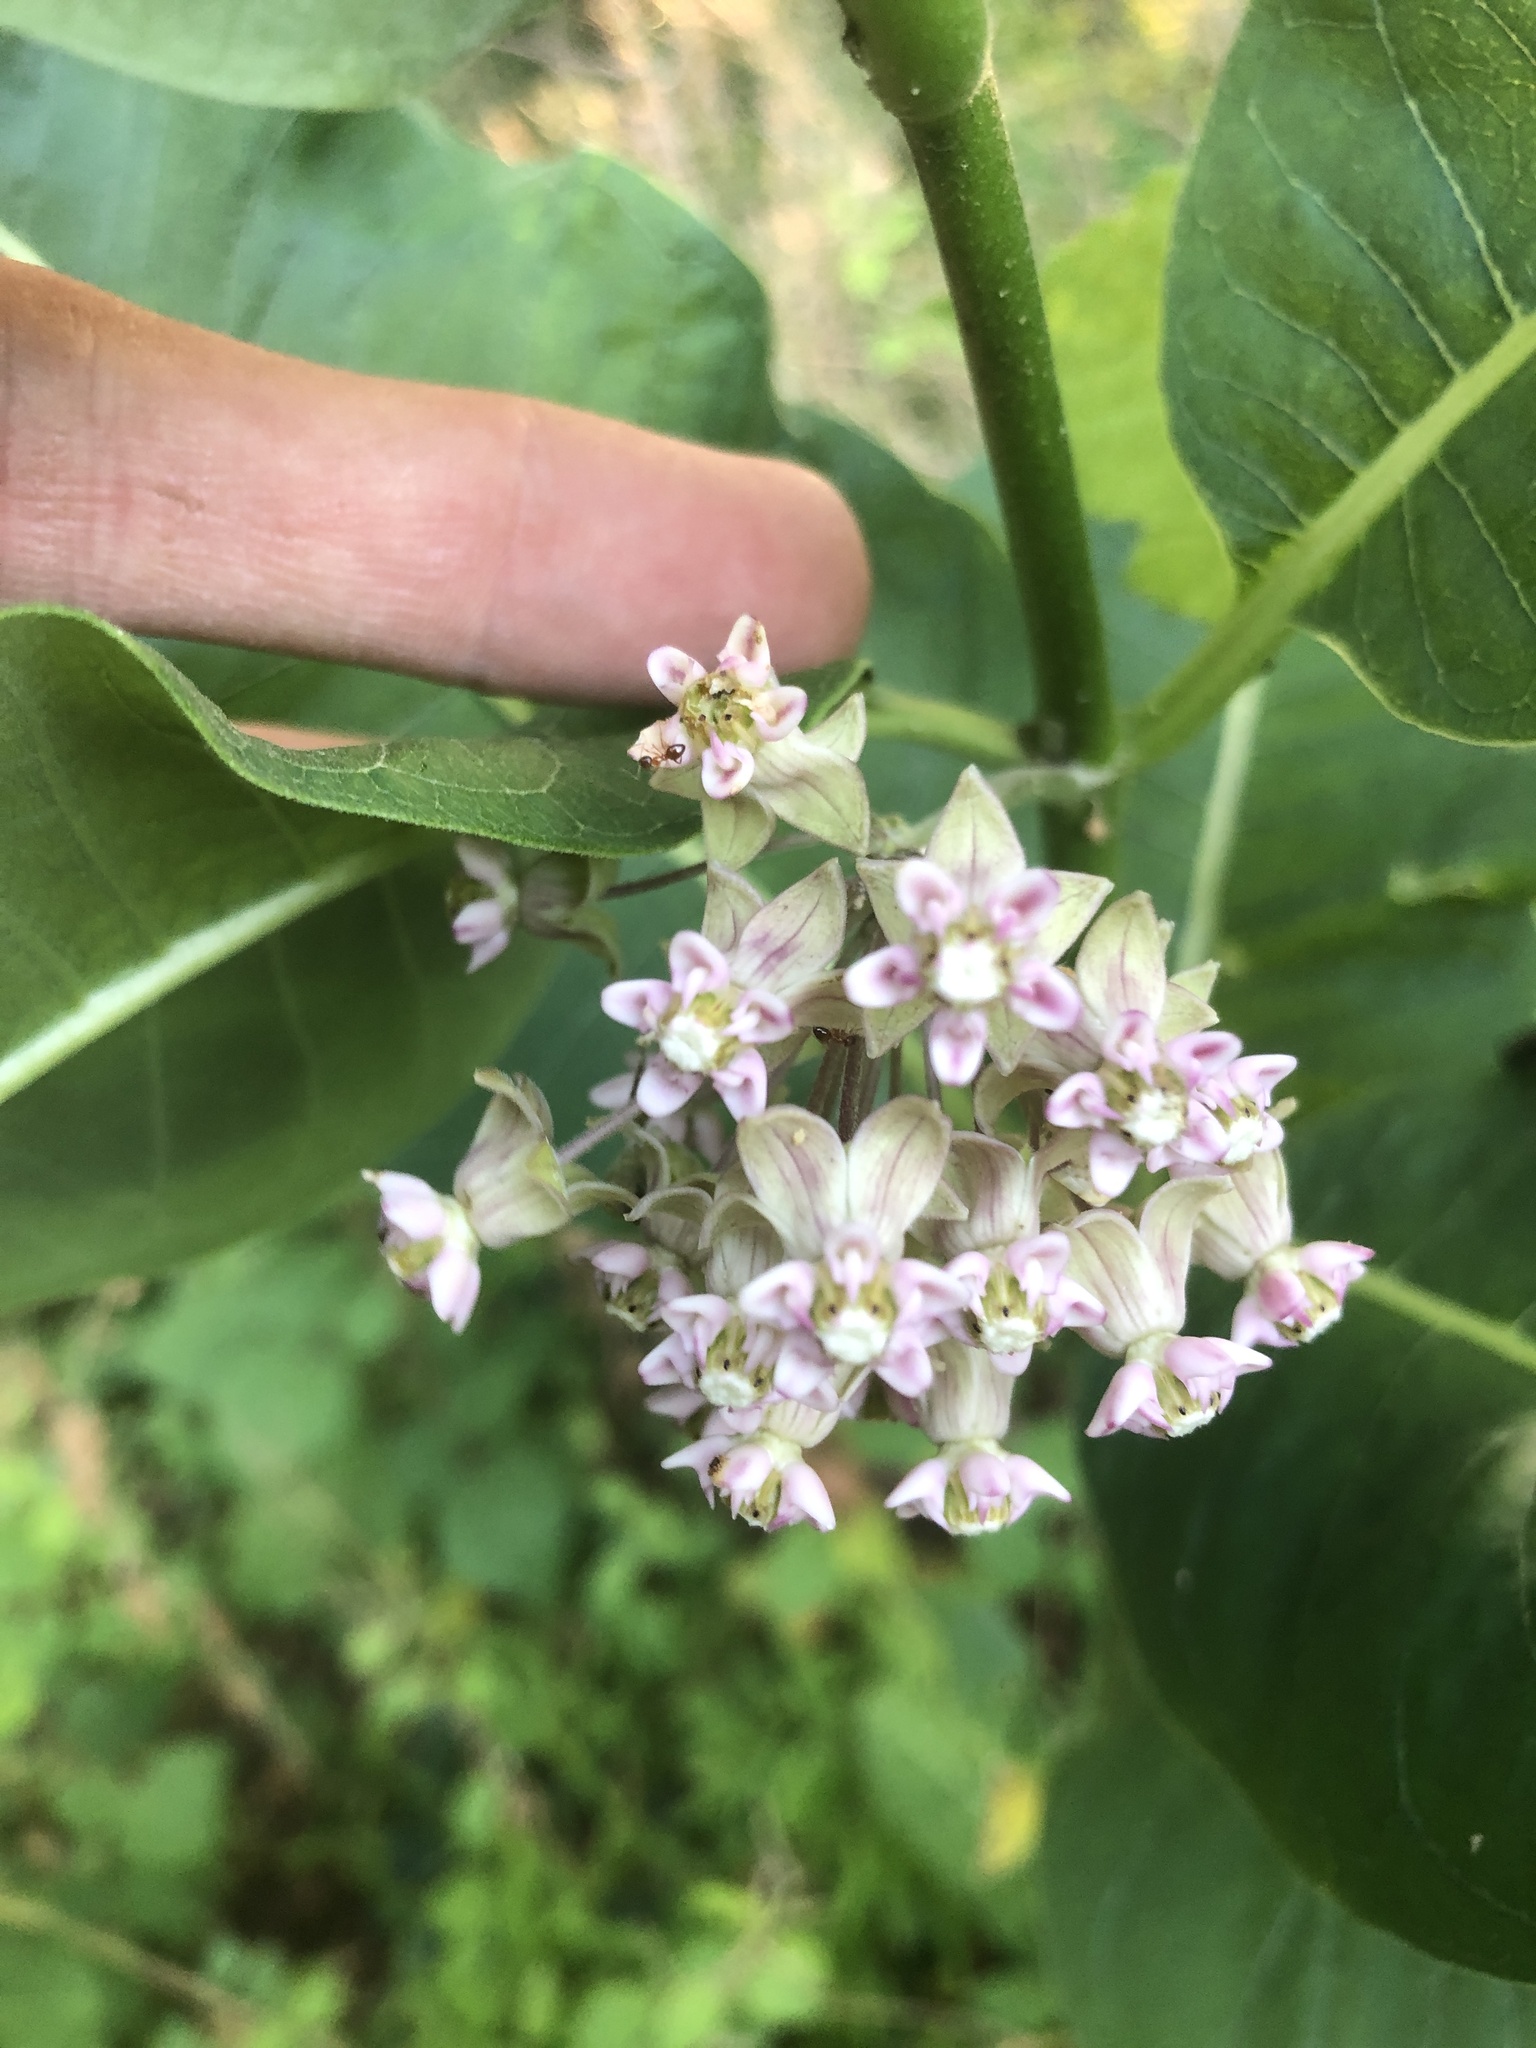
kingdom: Plantae
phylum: Tracheophyta
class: Magnoliopsida
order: Gentianales
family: Apocynaceae
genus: Asclepias
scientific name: Asclepias syriaca
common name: Common milkweed
